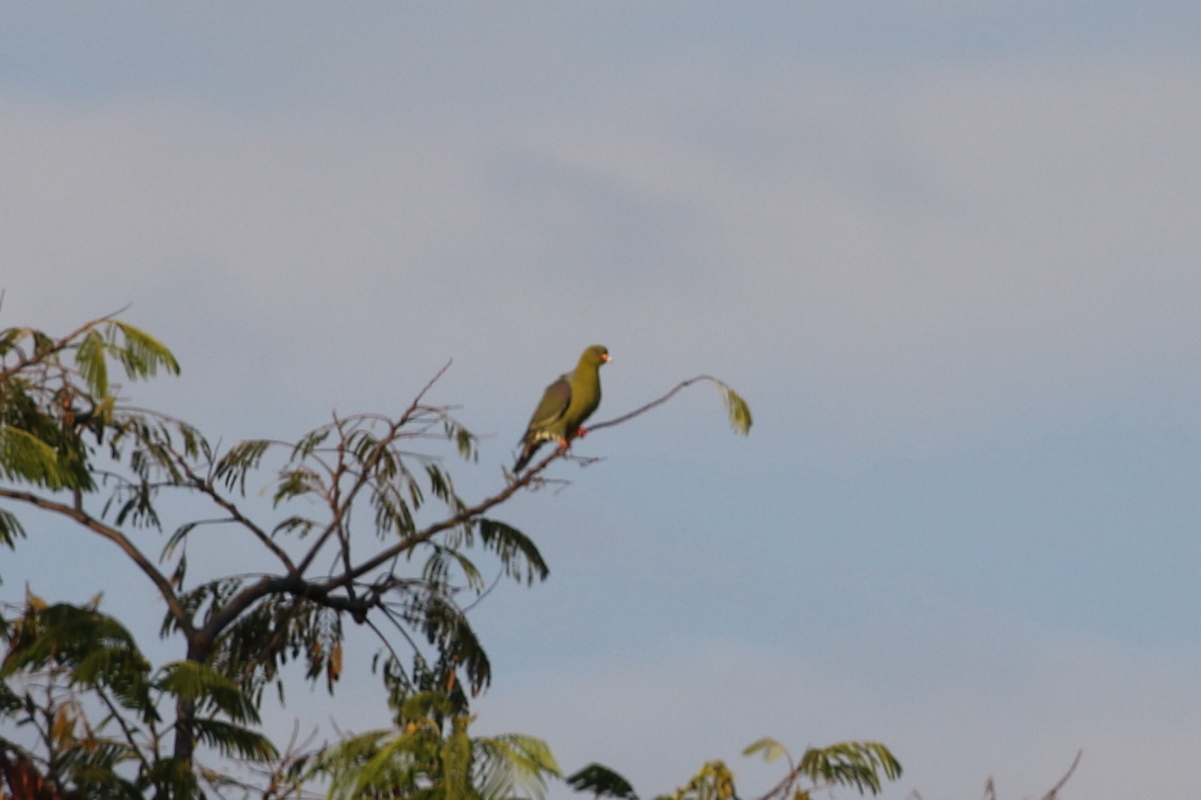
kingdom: Animalia
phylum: Chordata
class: Aves
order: Columbiformes
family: Columbidae
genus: Treron
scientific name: Treron calvus
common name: African green pigeon
